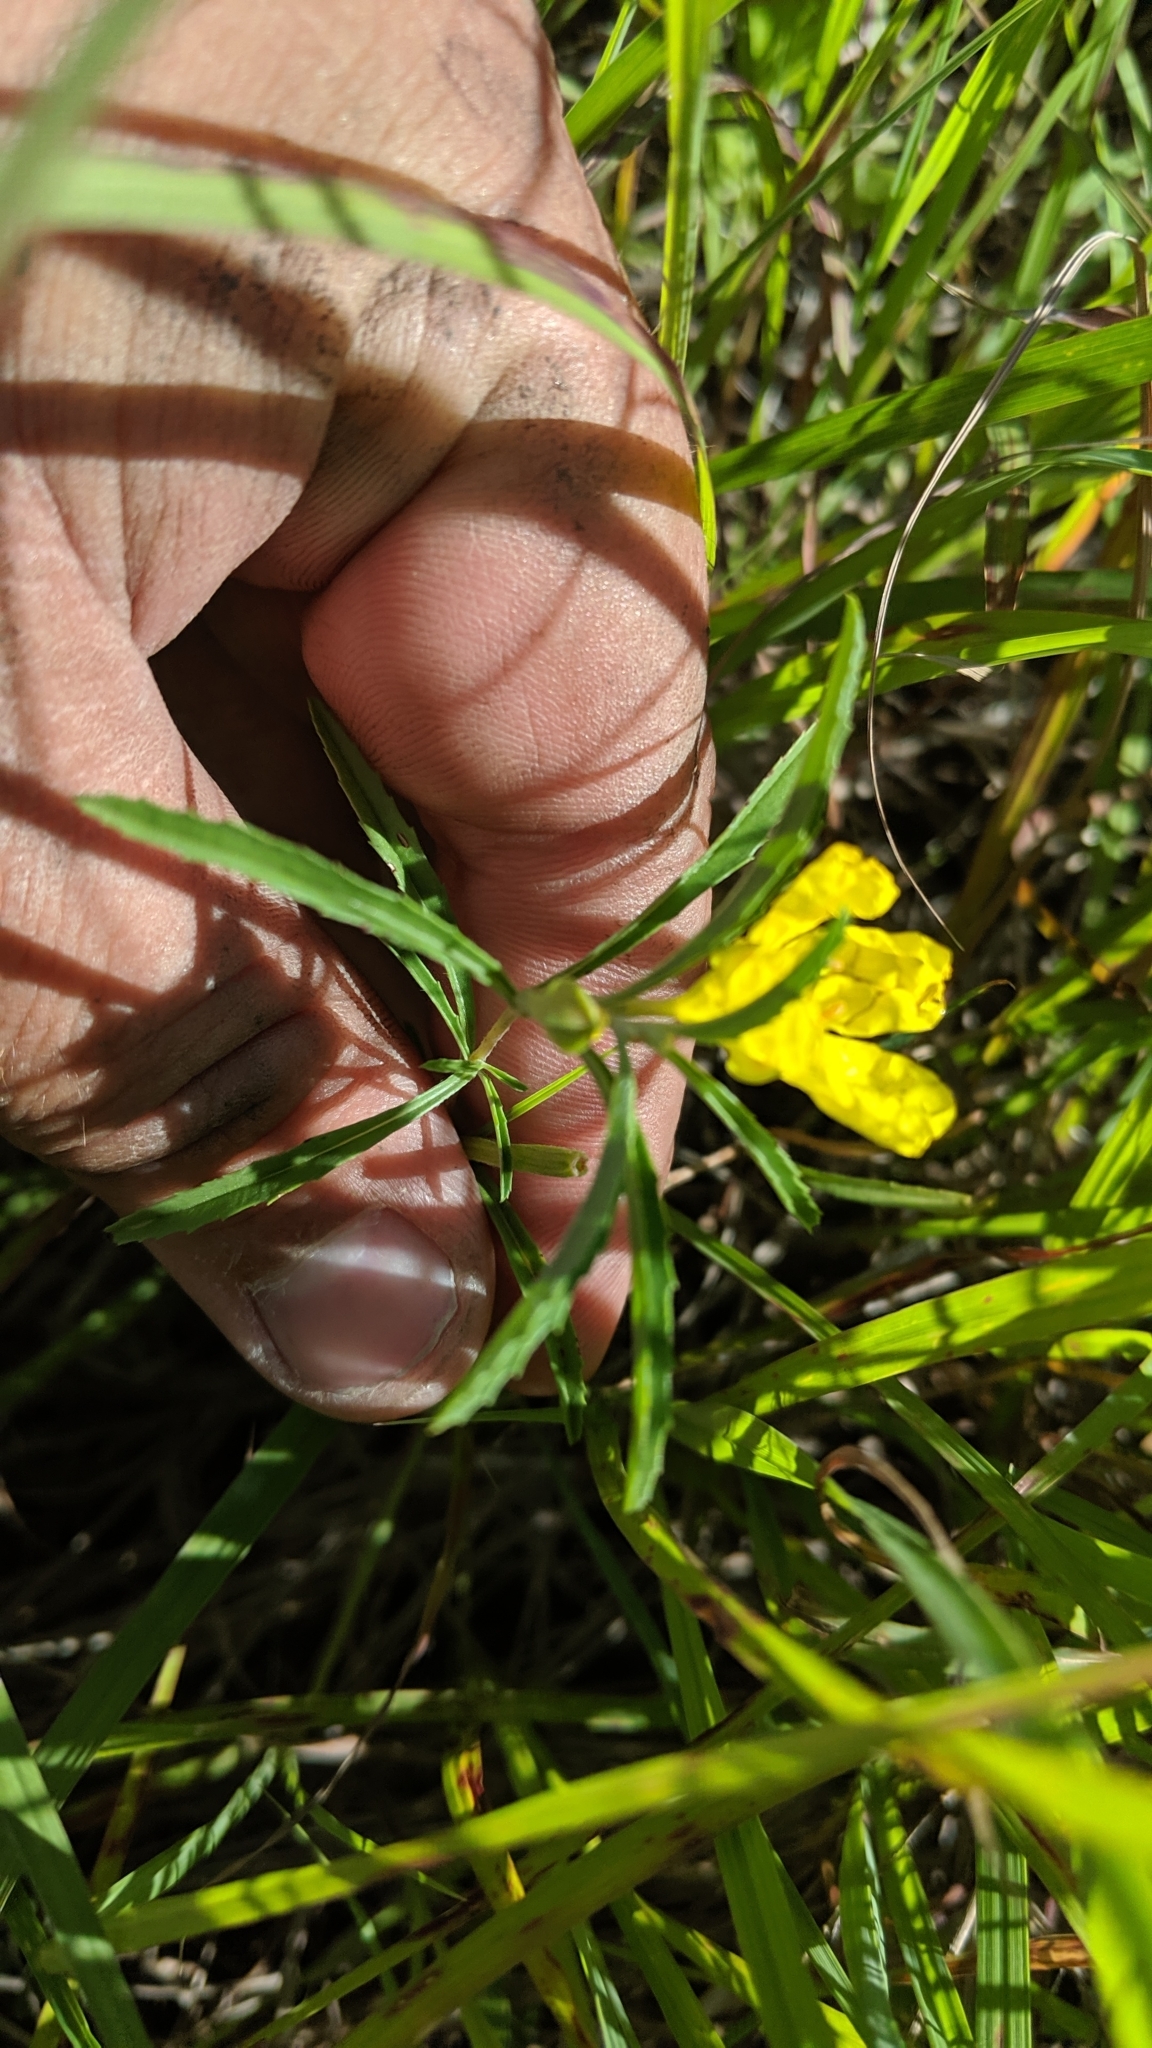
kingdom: Plantae
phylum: Tracheophyta
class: Magnoliopsida
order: Myrtales
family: Onagraceae
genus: Oenothera
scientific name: Oenothera serrulata
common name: Half-shrub calylophus
